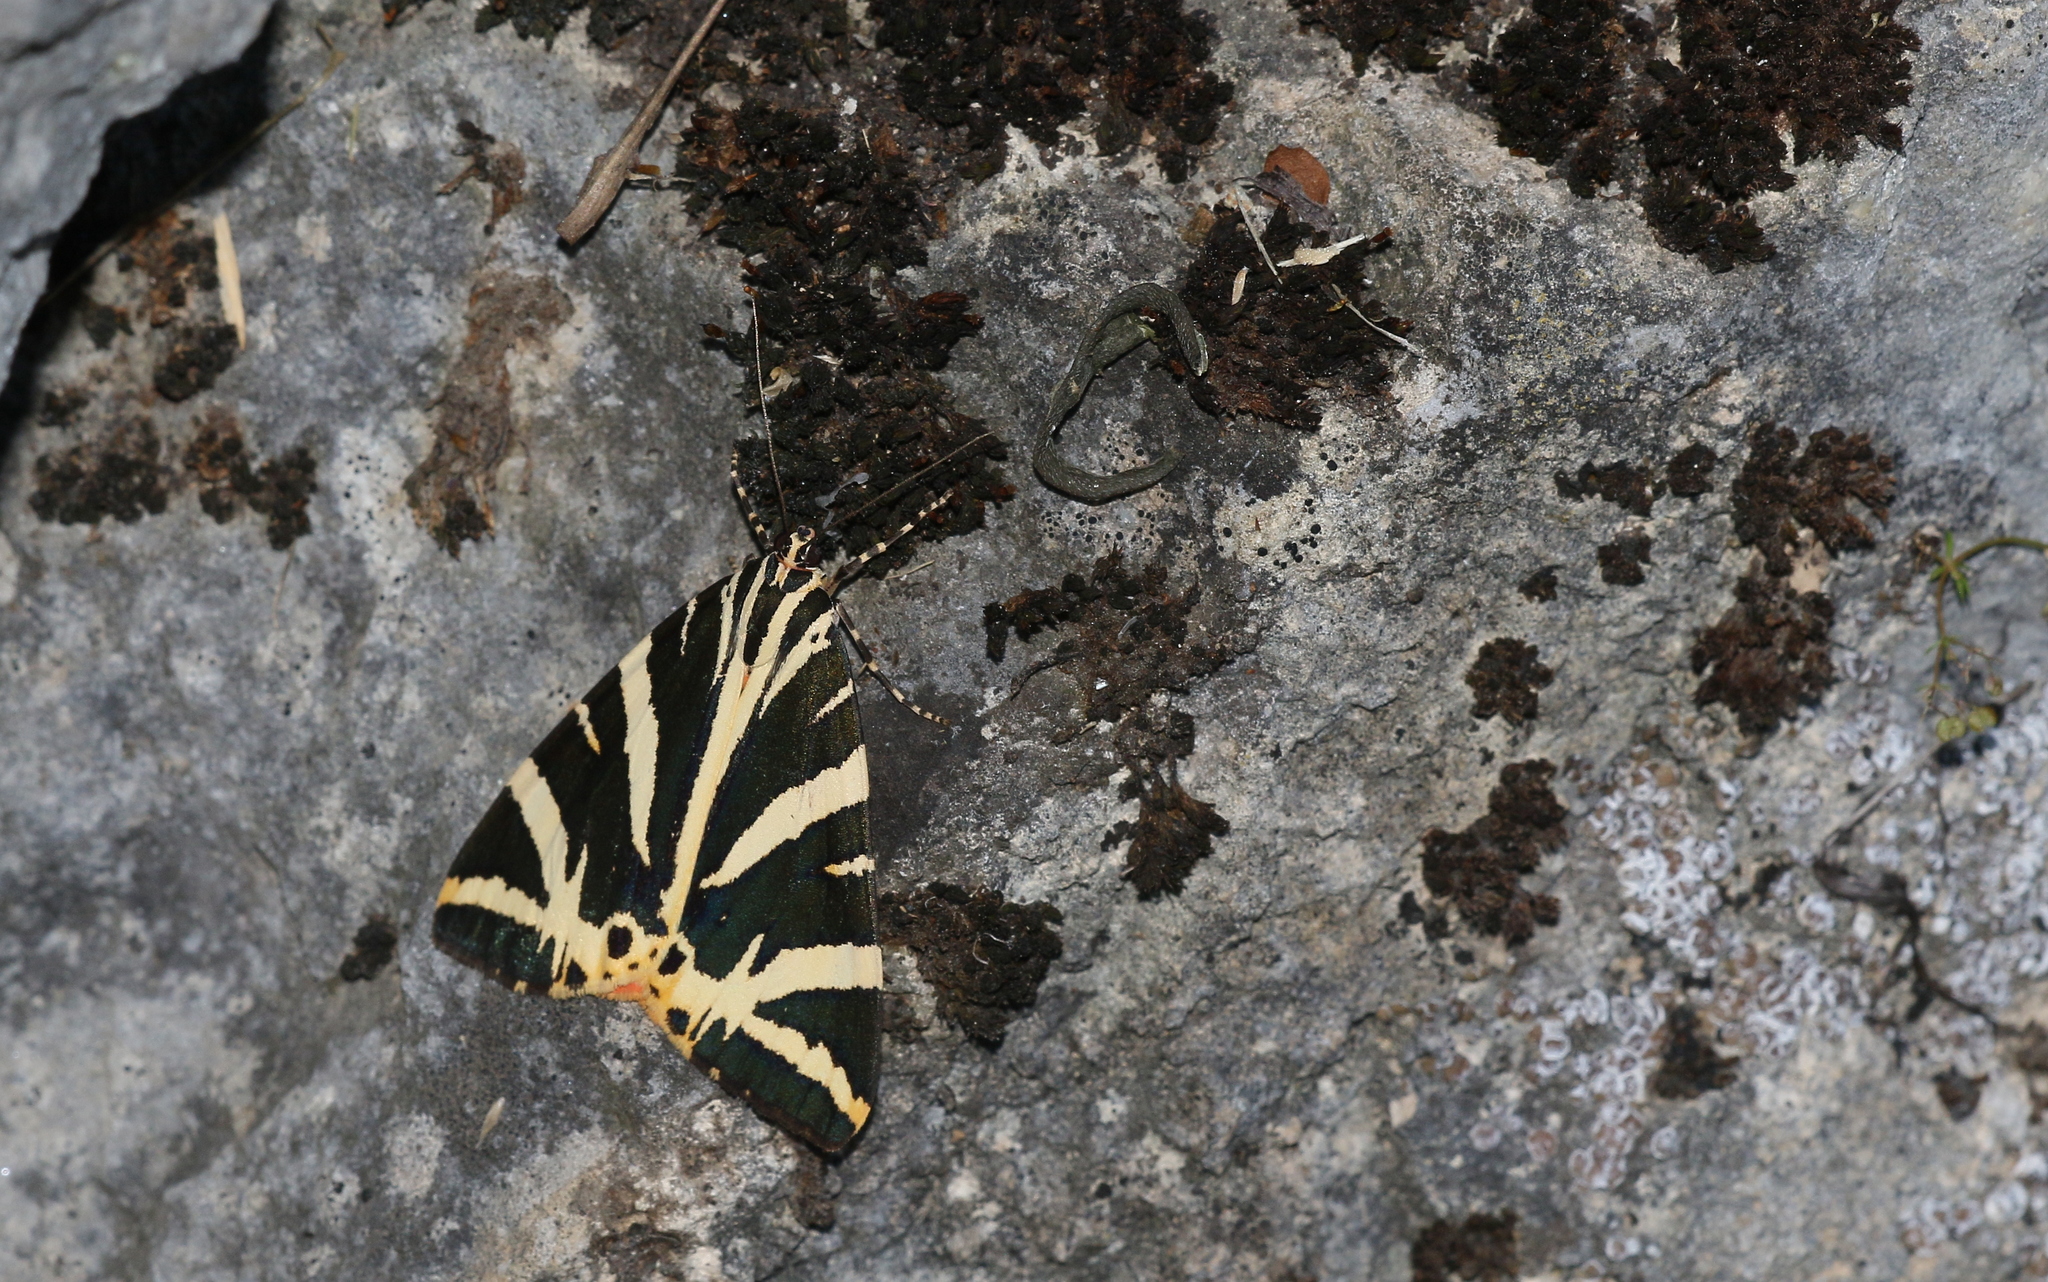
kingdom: Animalia
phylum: Arthropoda
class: Insecta
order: Lepidoptera
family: Erebidae
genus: Euplagia
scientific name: Euplagia quadripunctaria
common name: Jersey tiger
